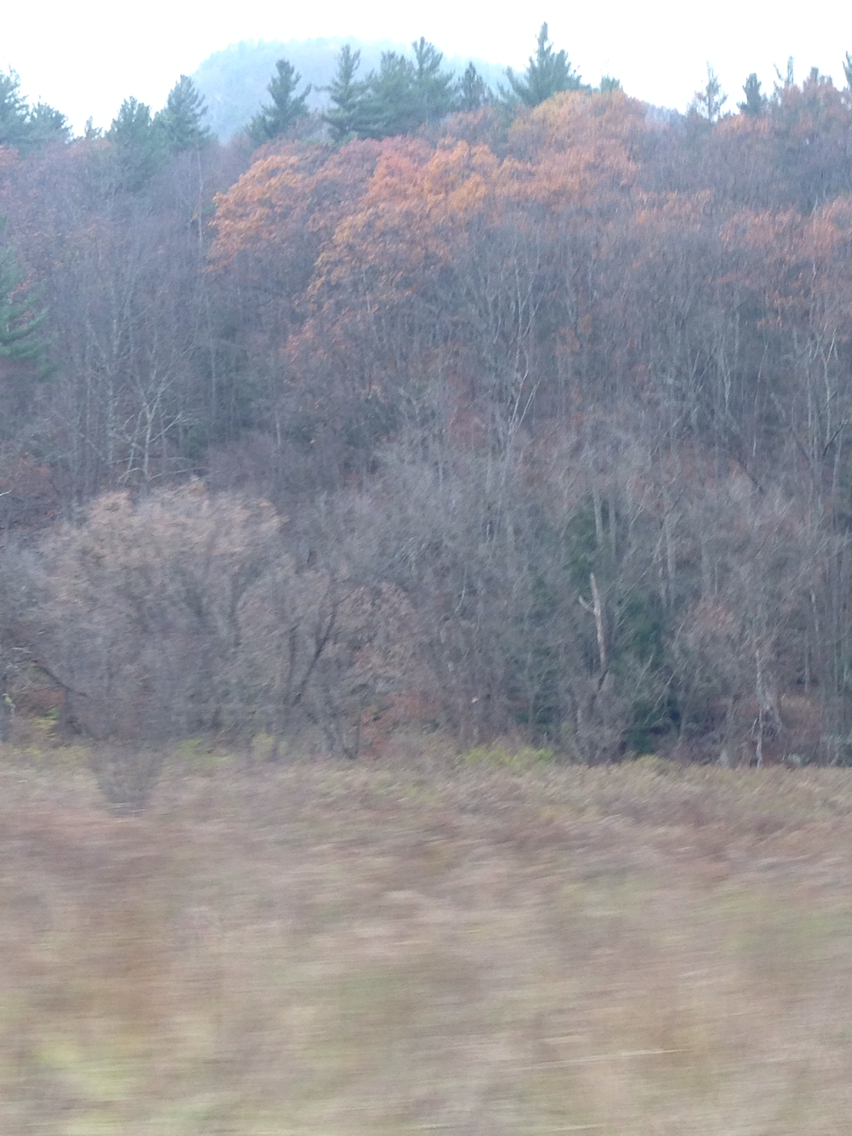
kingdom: Plantae
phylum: Tracheophyta
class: Magnoliopsida
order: Fagales
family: Fagaceae
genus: Quercus
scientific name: Quercus rubra
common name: Red oak
